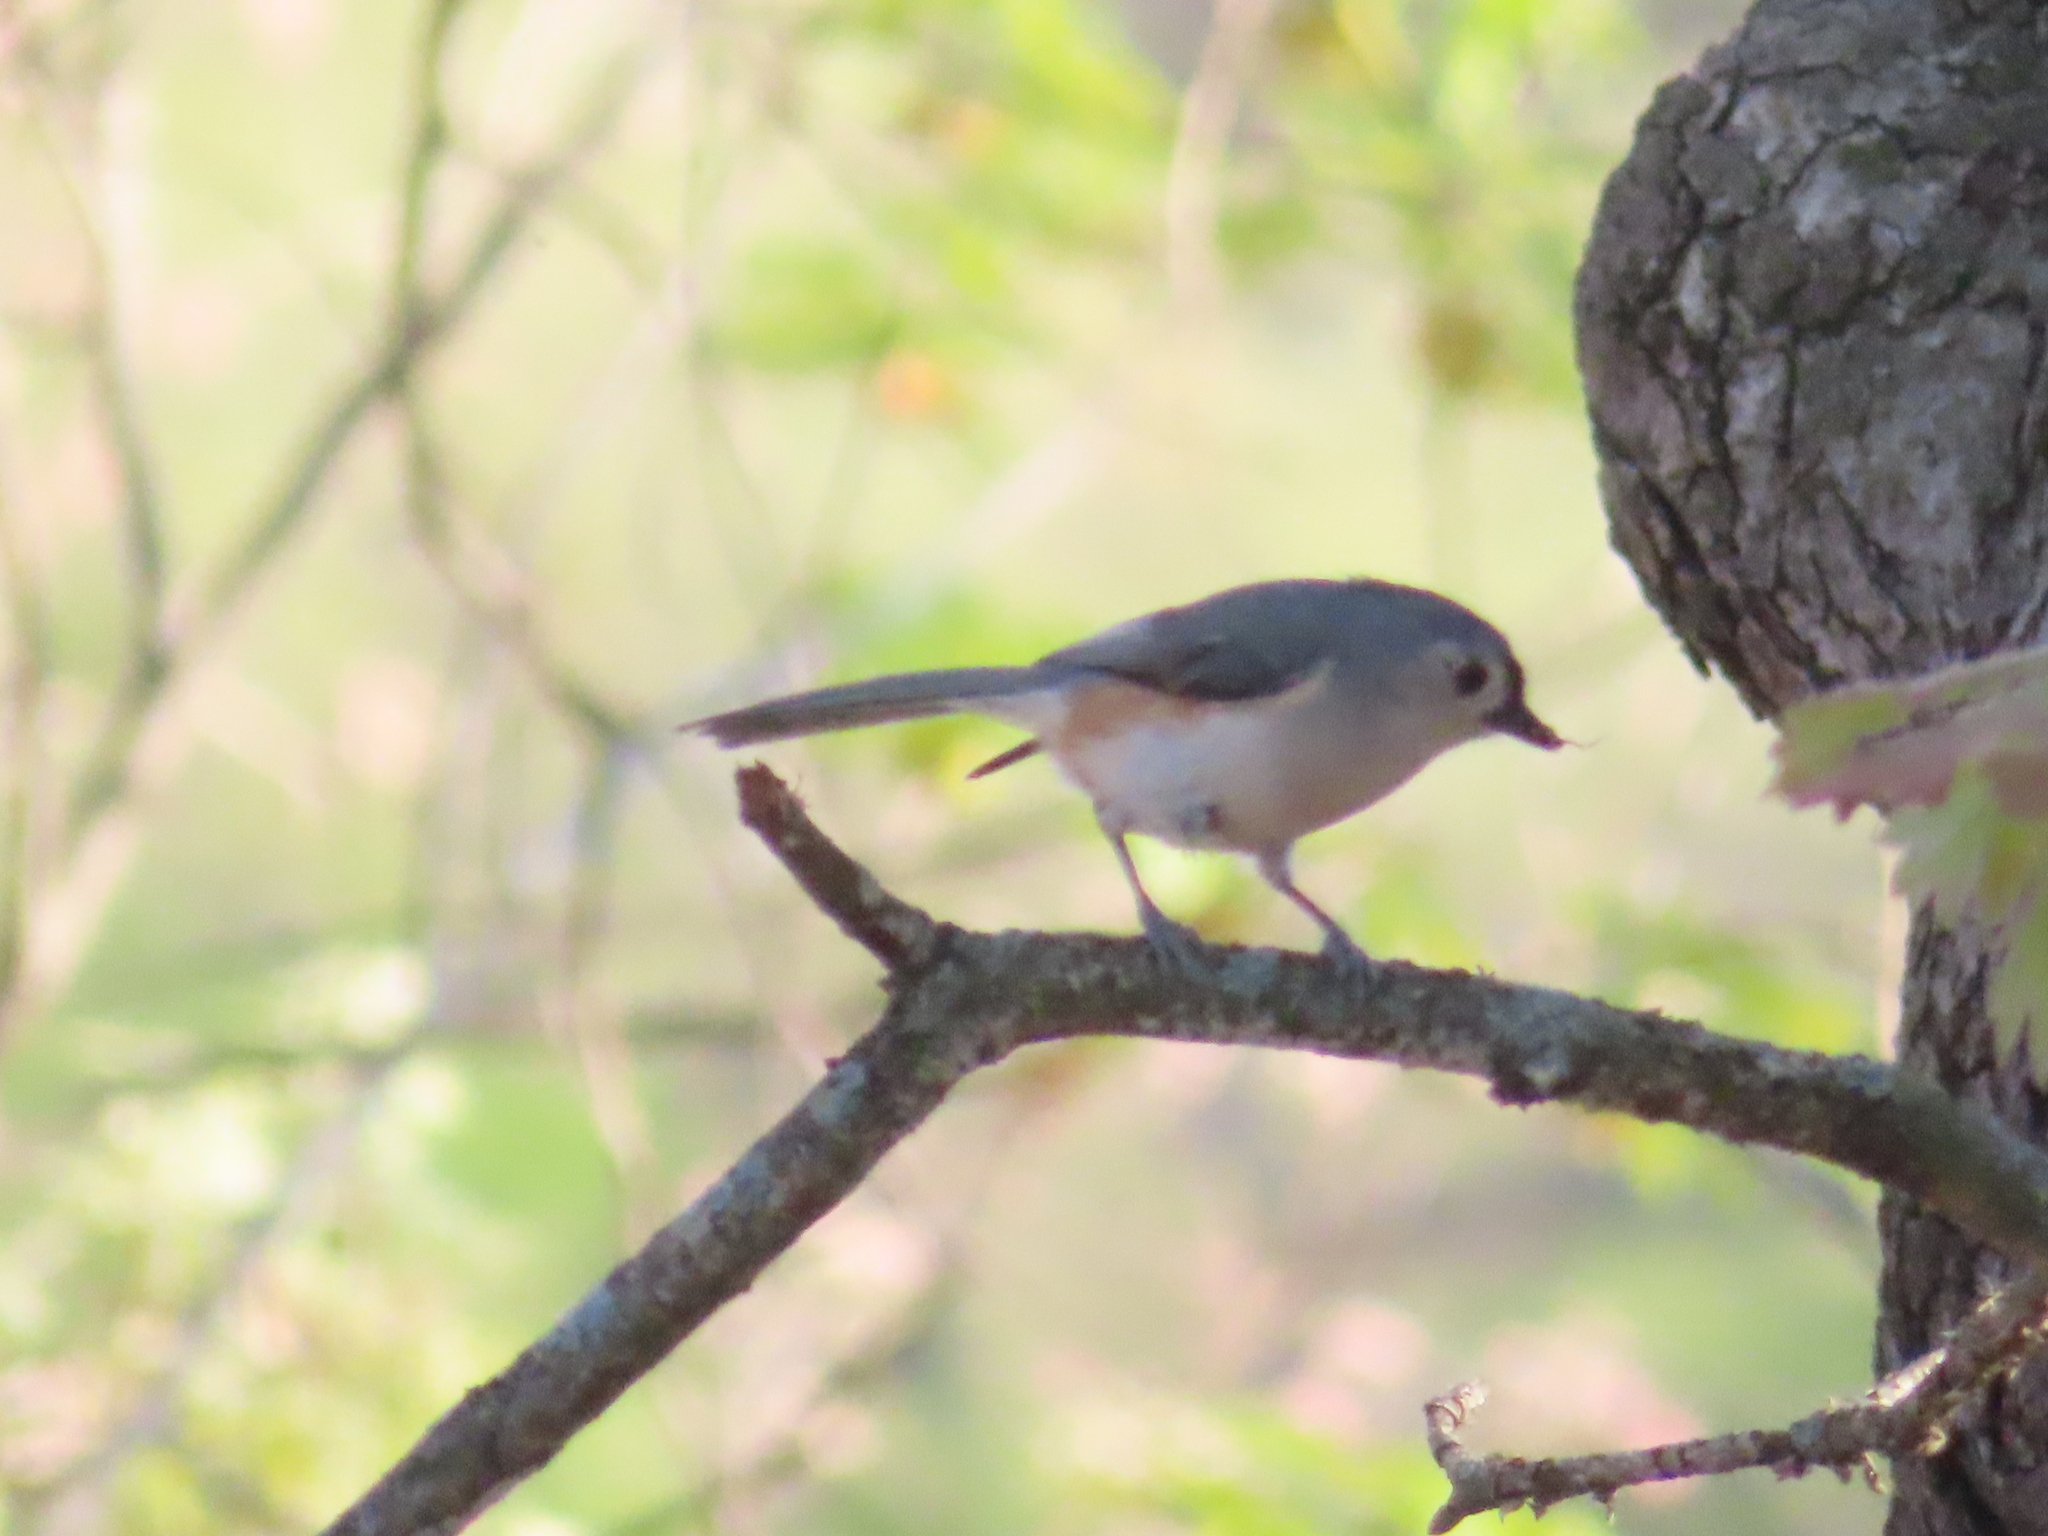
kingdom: Animalia
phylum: Chordata
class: Aves
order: Passeriformes
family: Paridae
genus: Baeolophus
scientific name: Baeolophus bicolor
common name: Tufted titmouse
